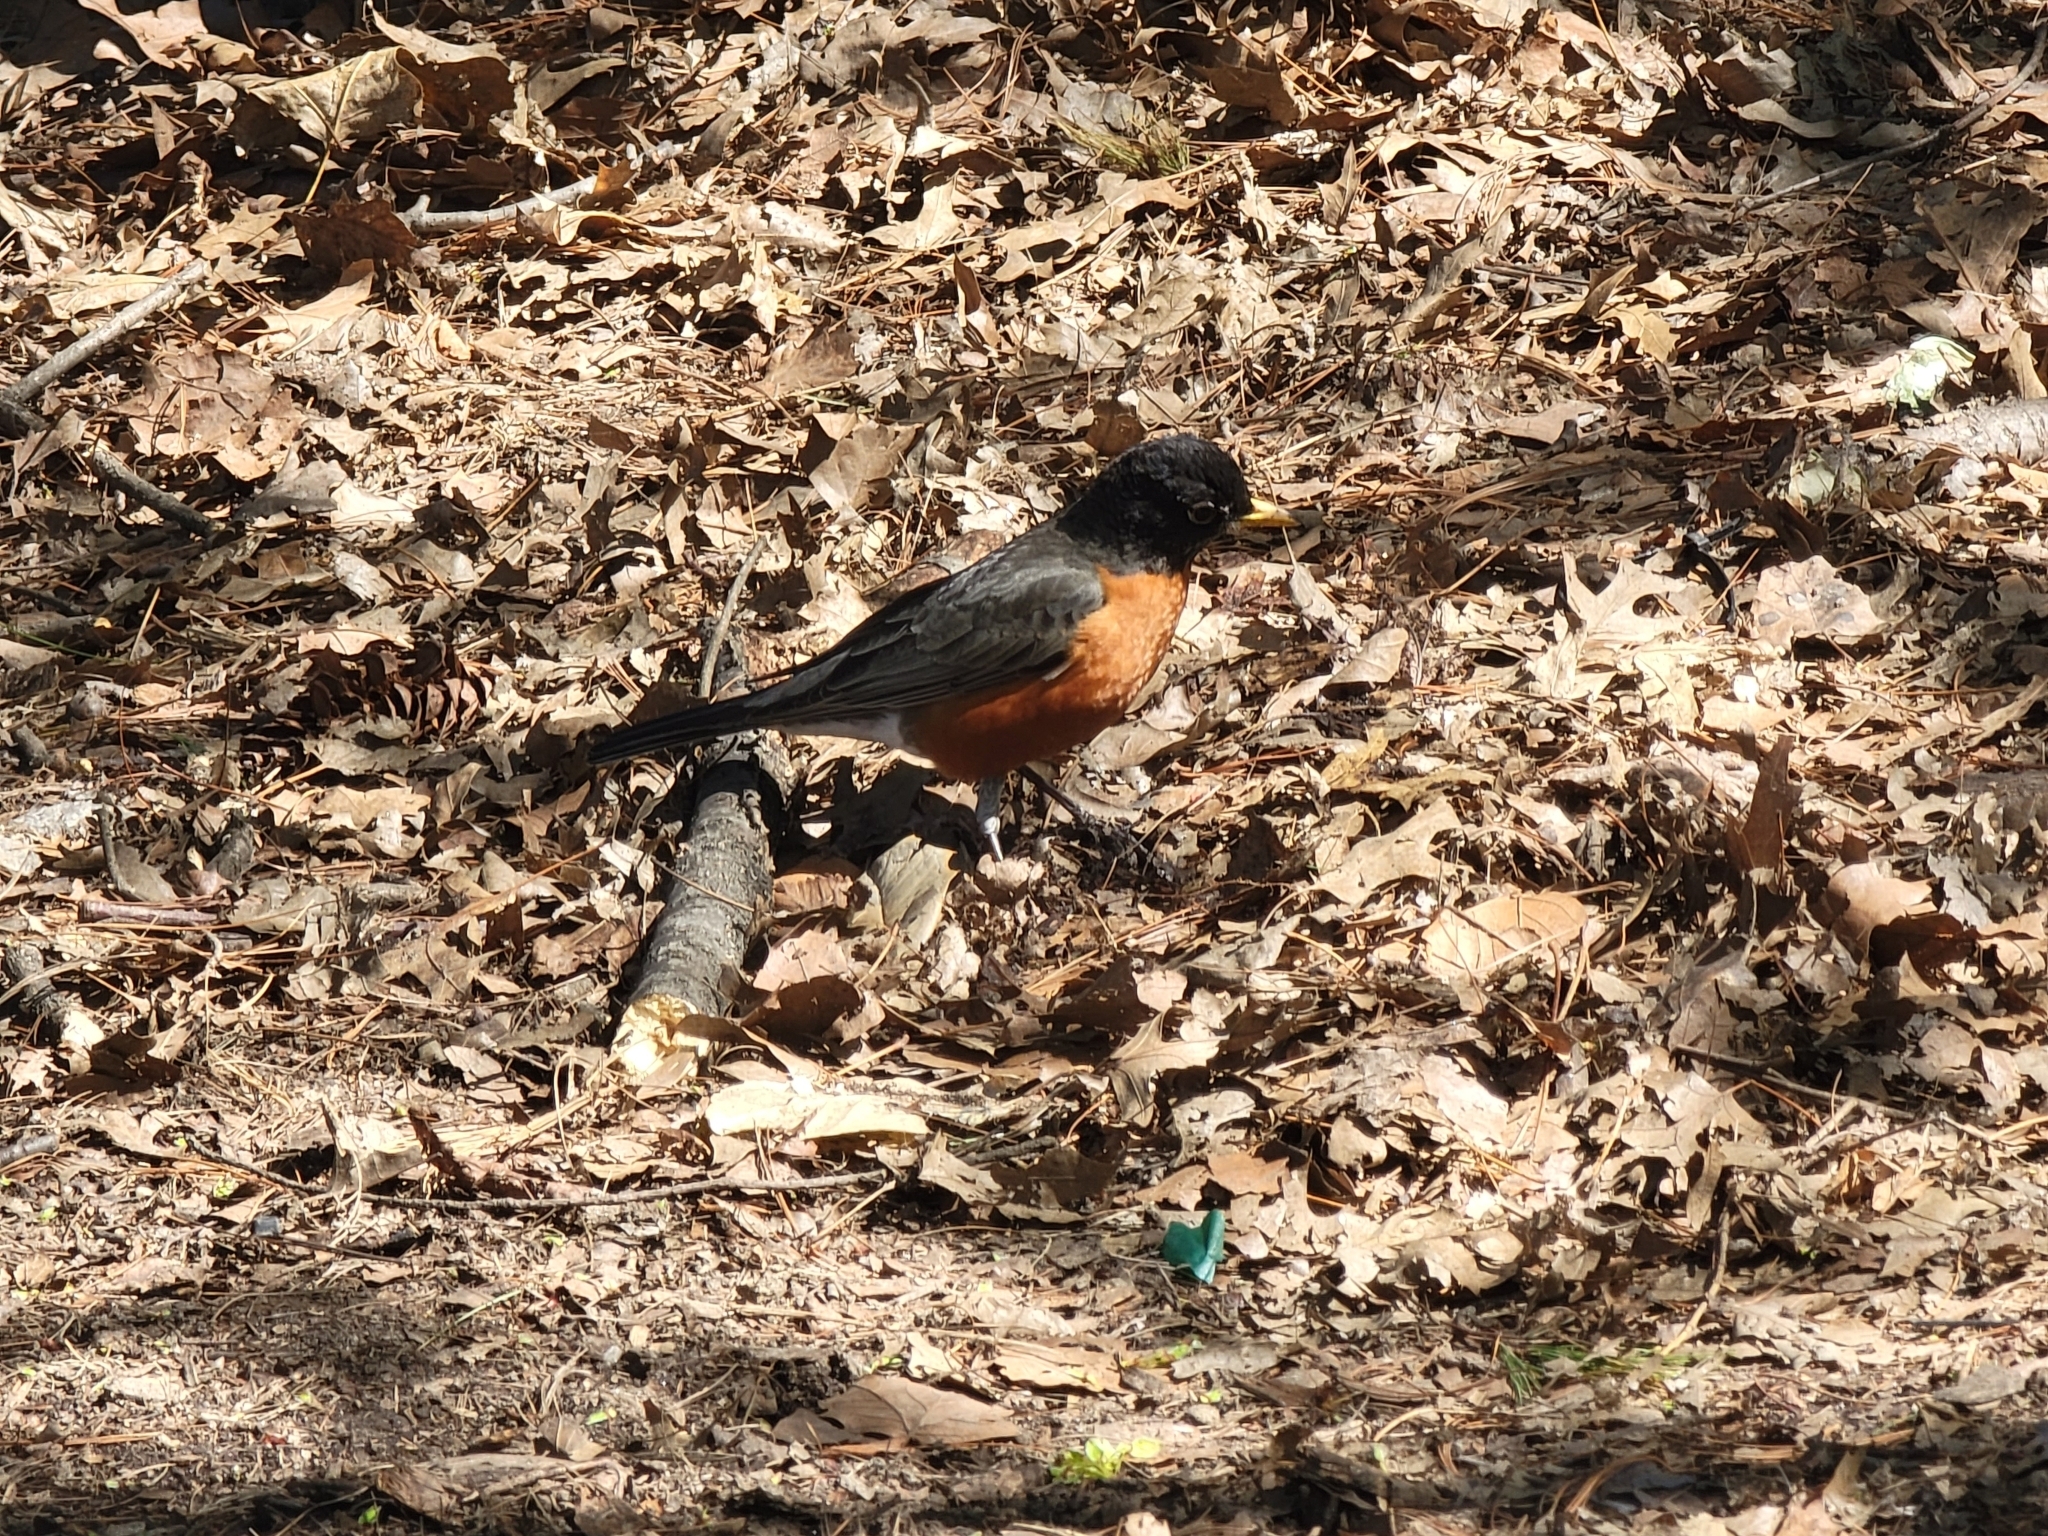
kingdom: Animalia
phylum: Chordata
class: Aves
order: Passeriformes
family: Turdidae
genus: Turdus
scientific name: Turdus migratorius
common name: American robin
